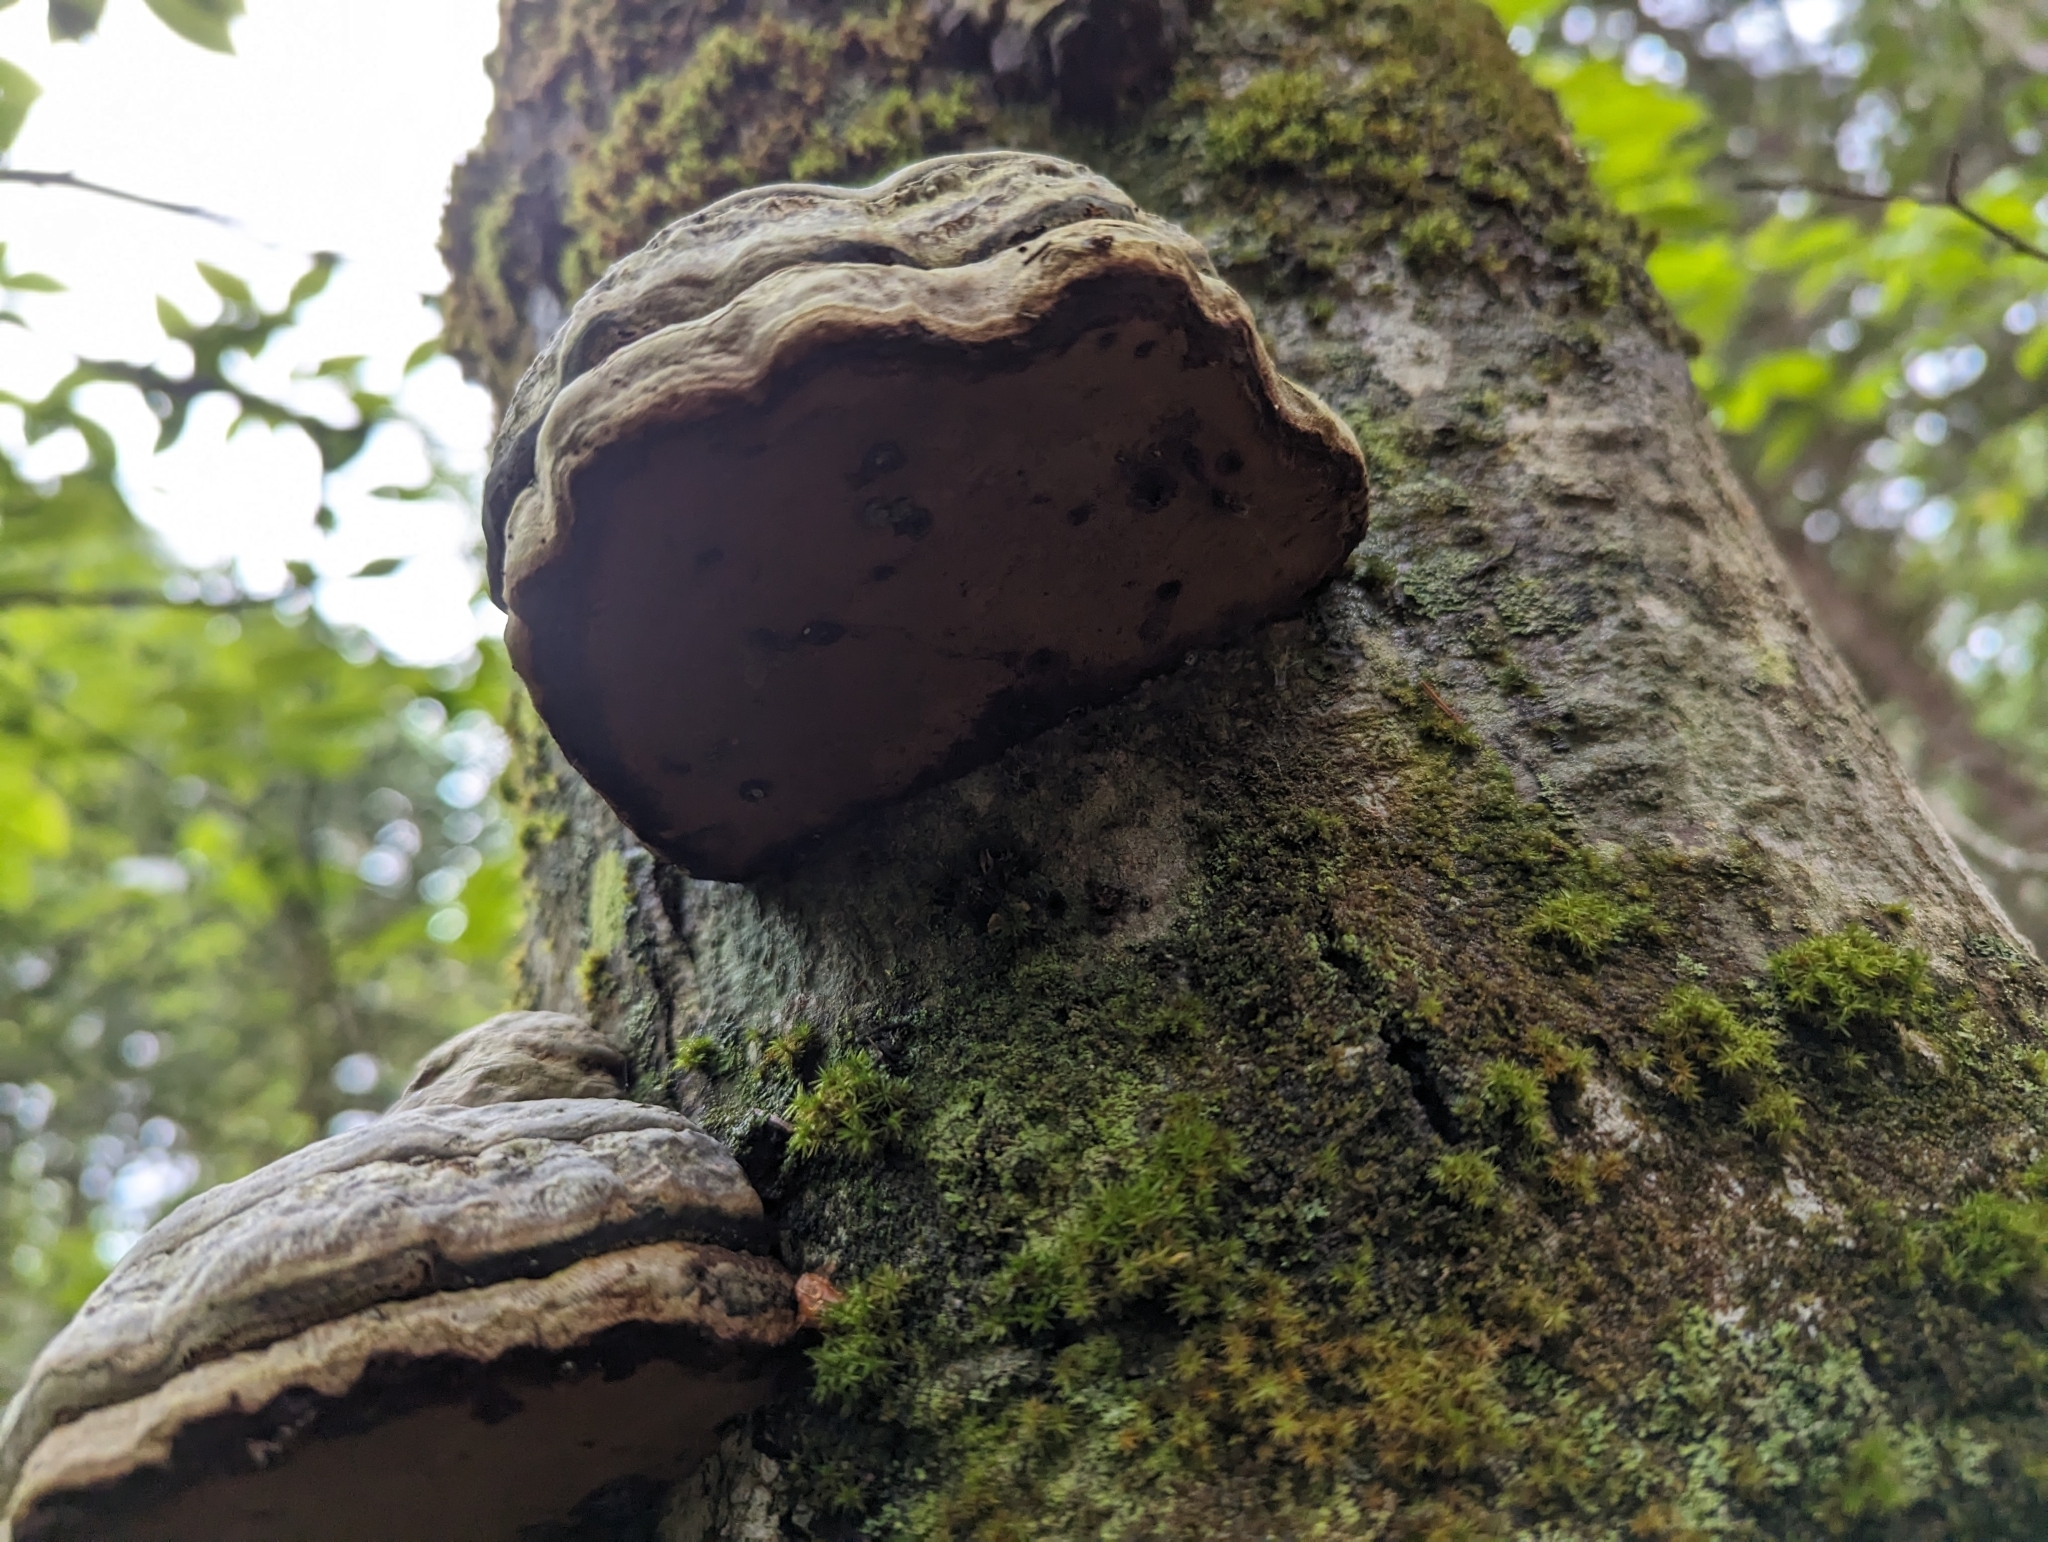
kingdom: Fungi
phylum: Basidiomycota
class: Agaricomycetes
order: Polyporales
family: Polyporaceae
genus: Fomes
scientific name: Fomes fomentarius
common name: Hoof fungus
